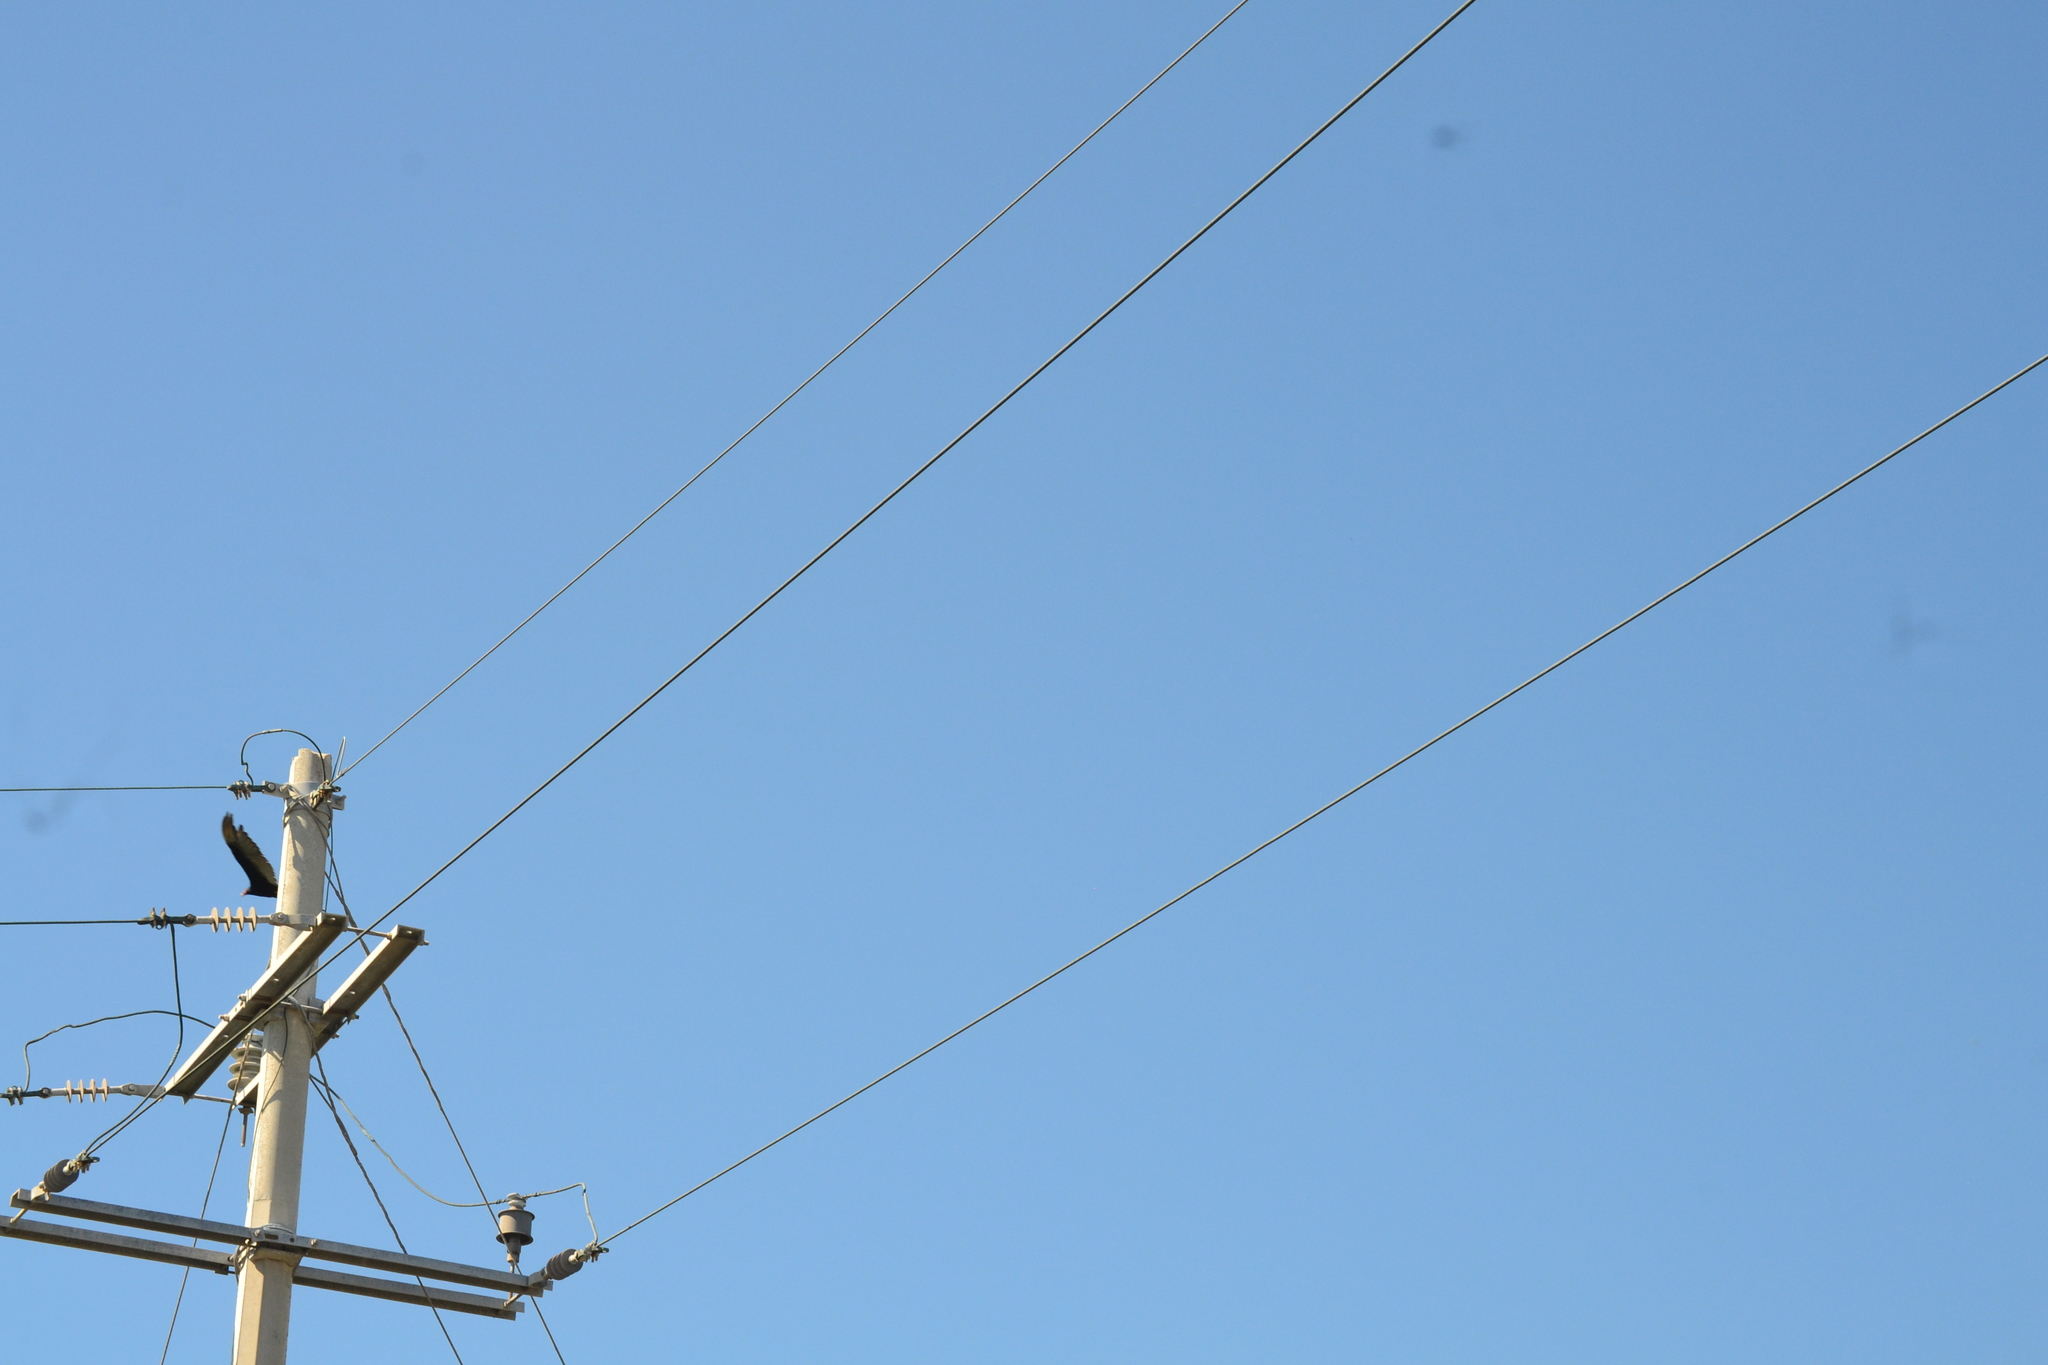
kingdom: Animalia
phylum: Chordata
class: Aves
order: Accipitriformes
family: Cathartidae
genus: Cathartes
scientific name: Cathartes aura
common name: Turkey vulture
